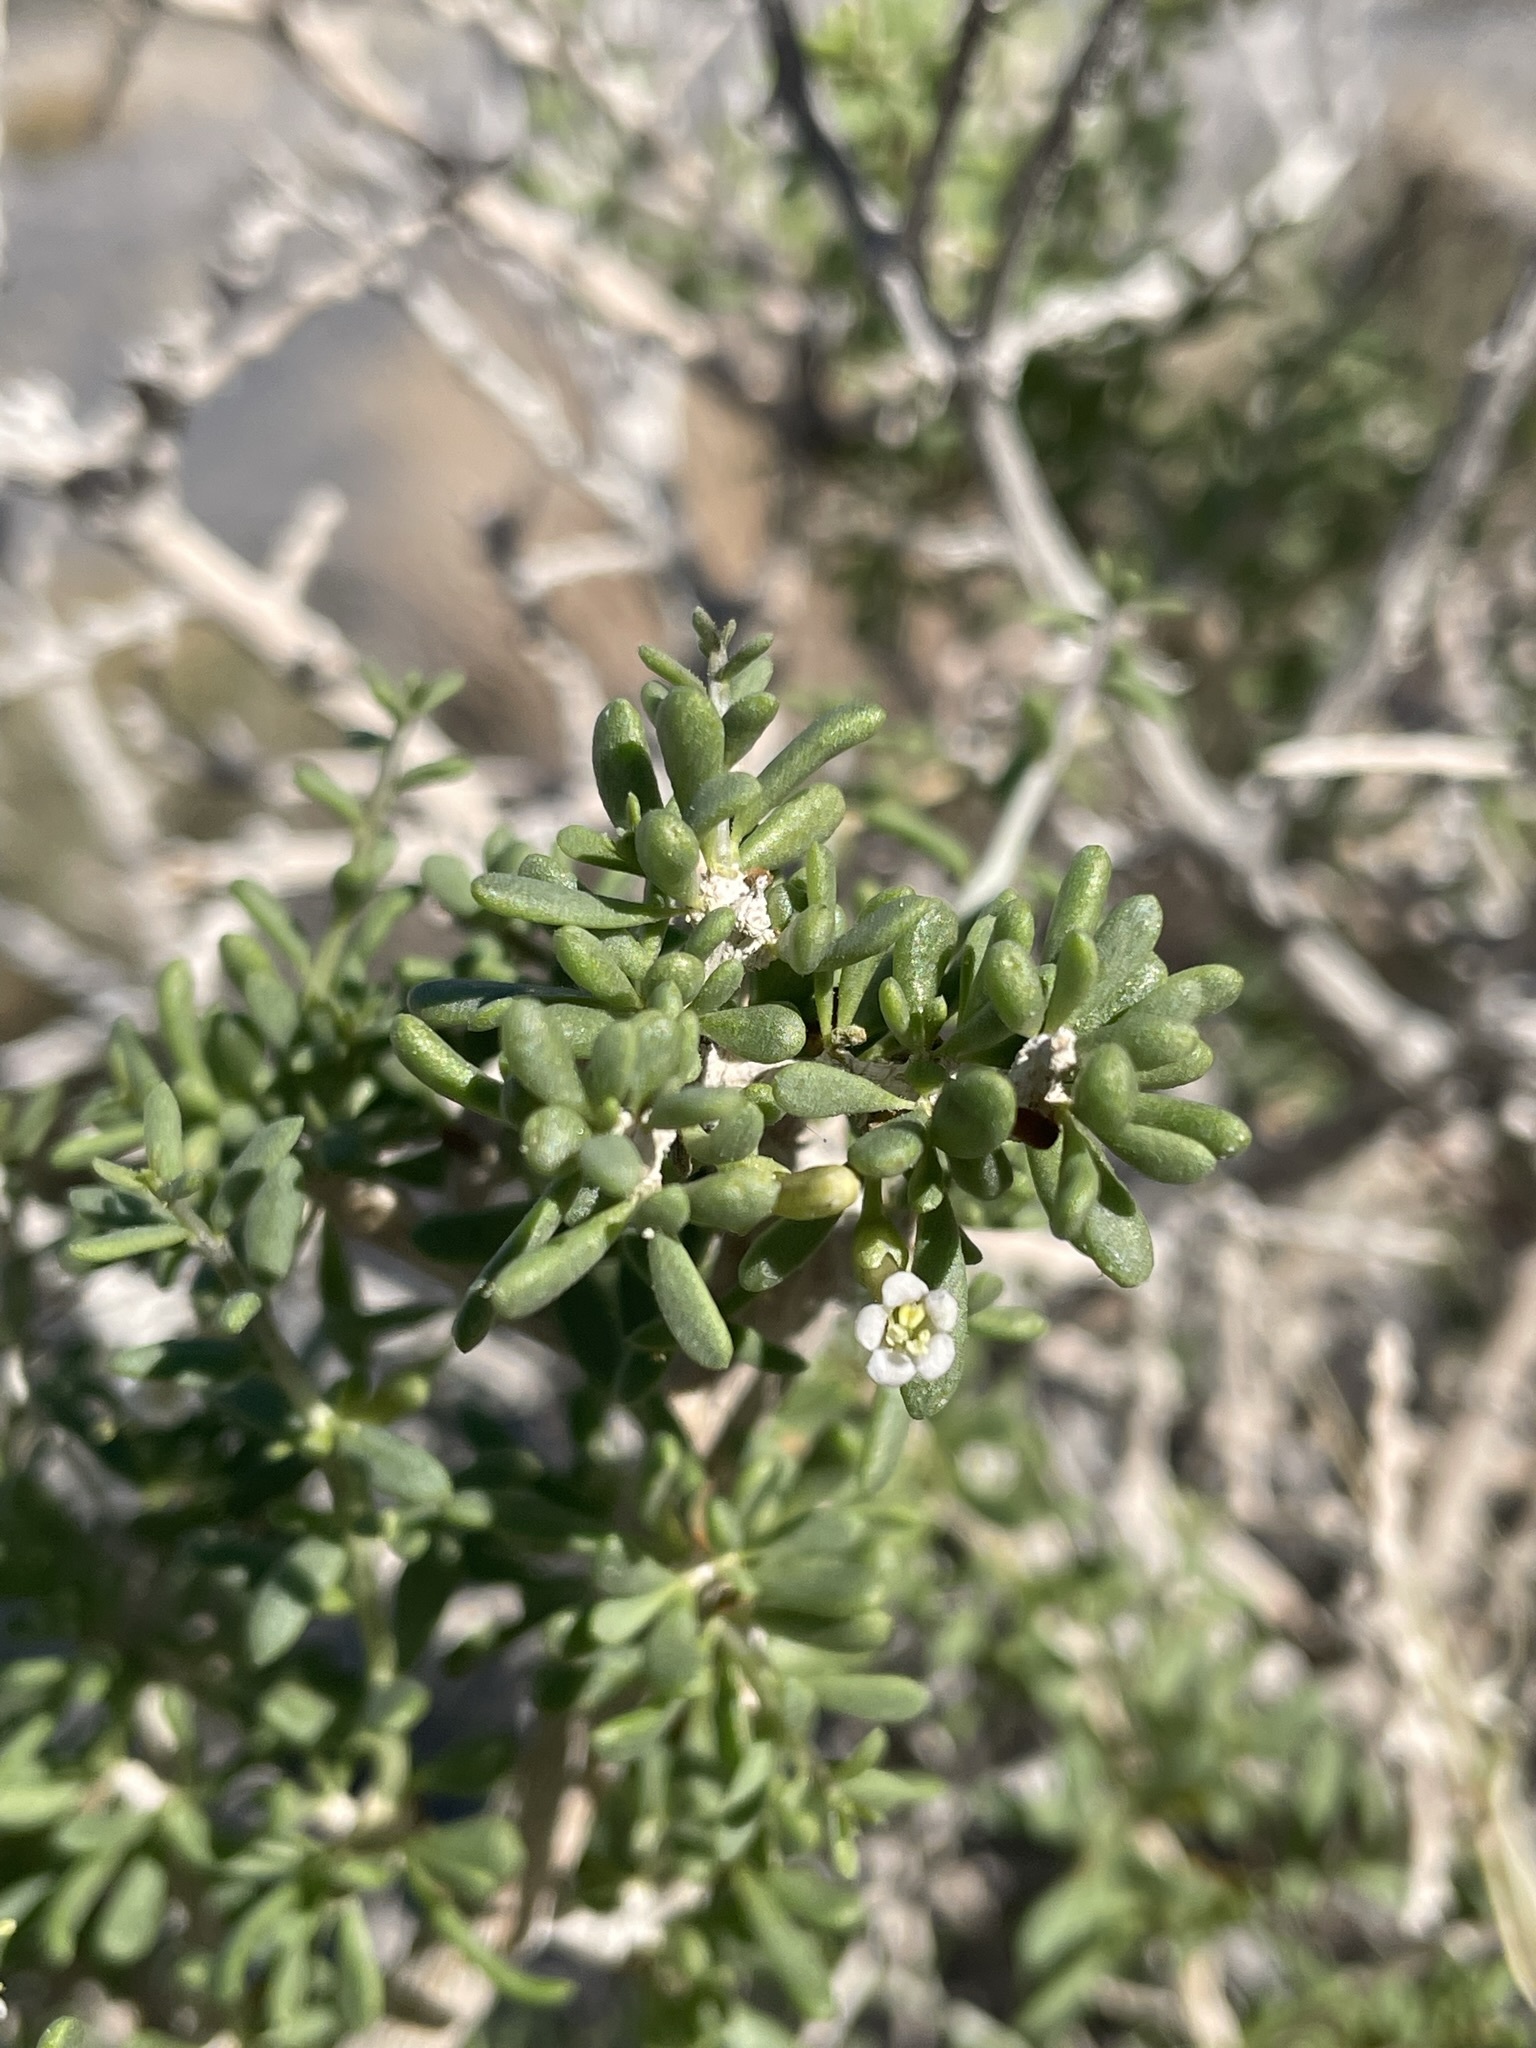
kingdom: Plantae
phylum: Tracheophyta
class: Magnoliopsida
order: Solanales
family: Solanaceae
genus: Lycium
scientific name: Lycium andersonii
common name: Water-jacket
